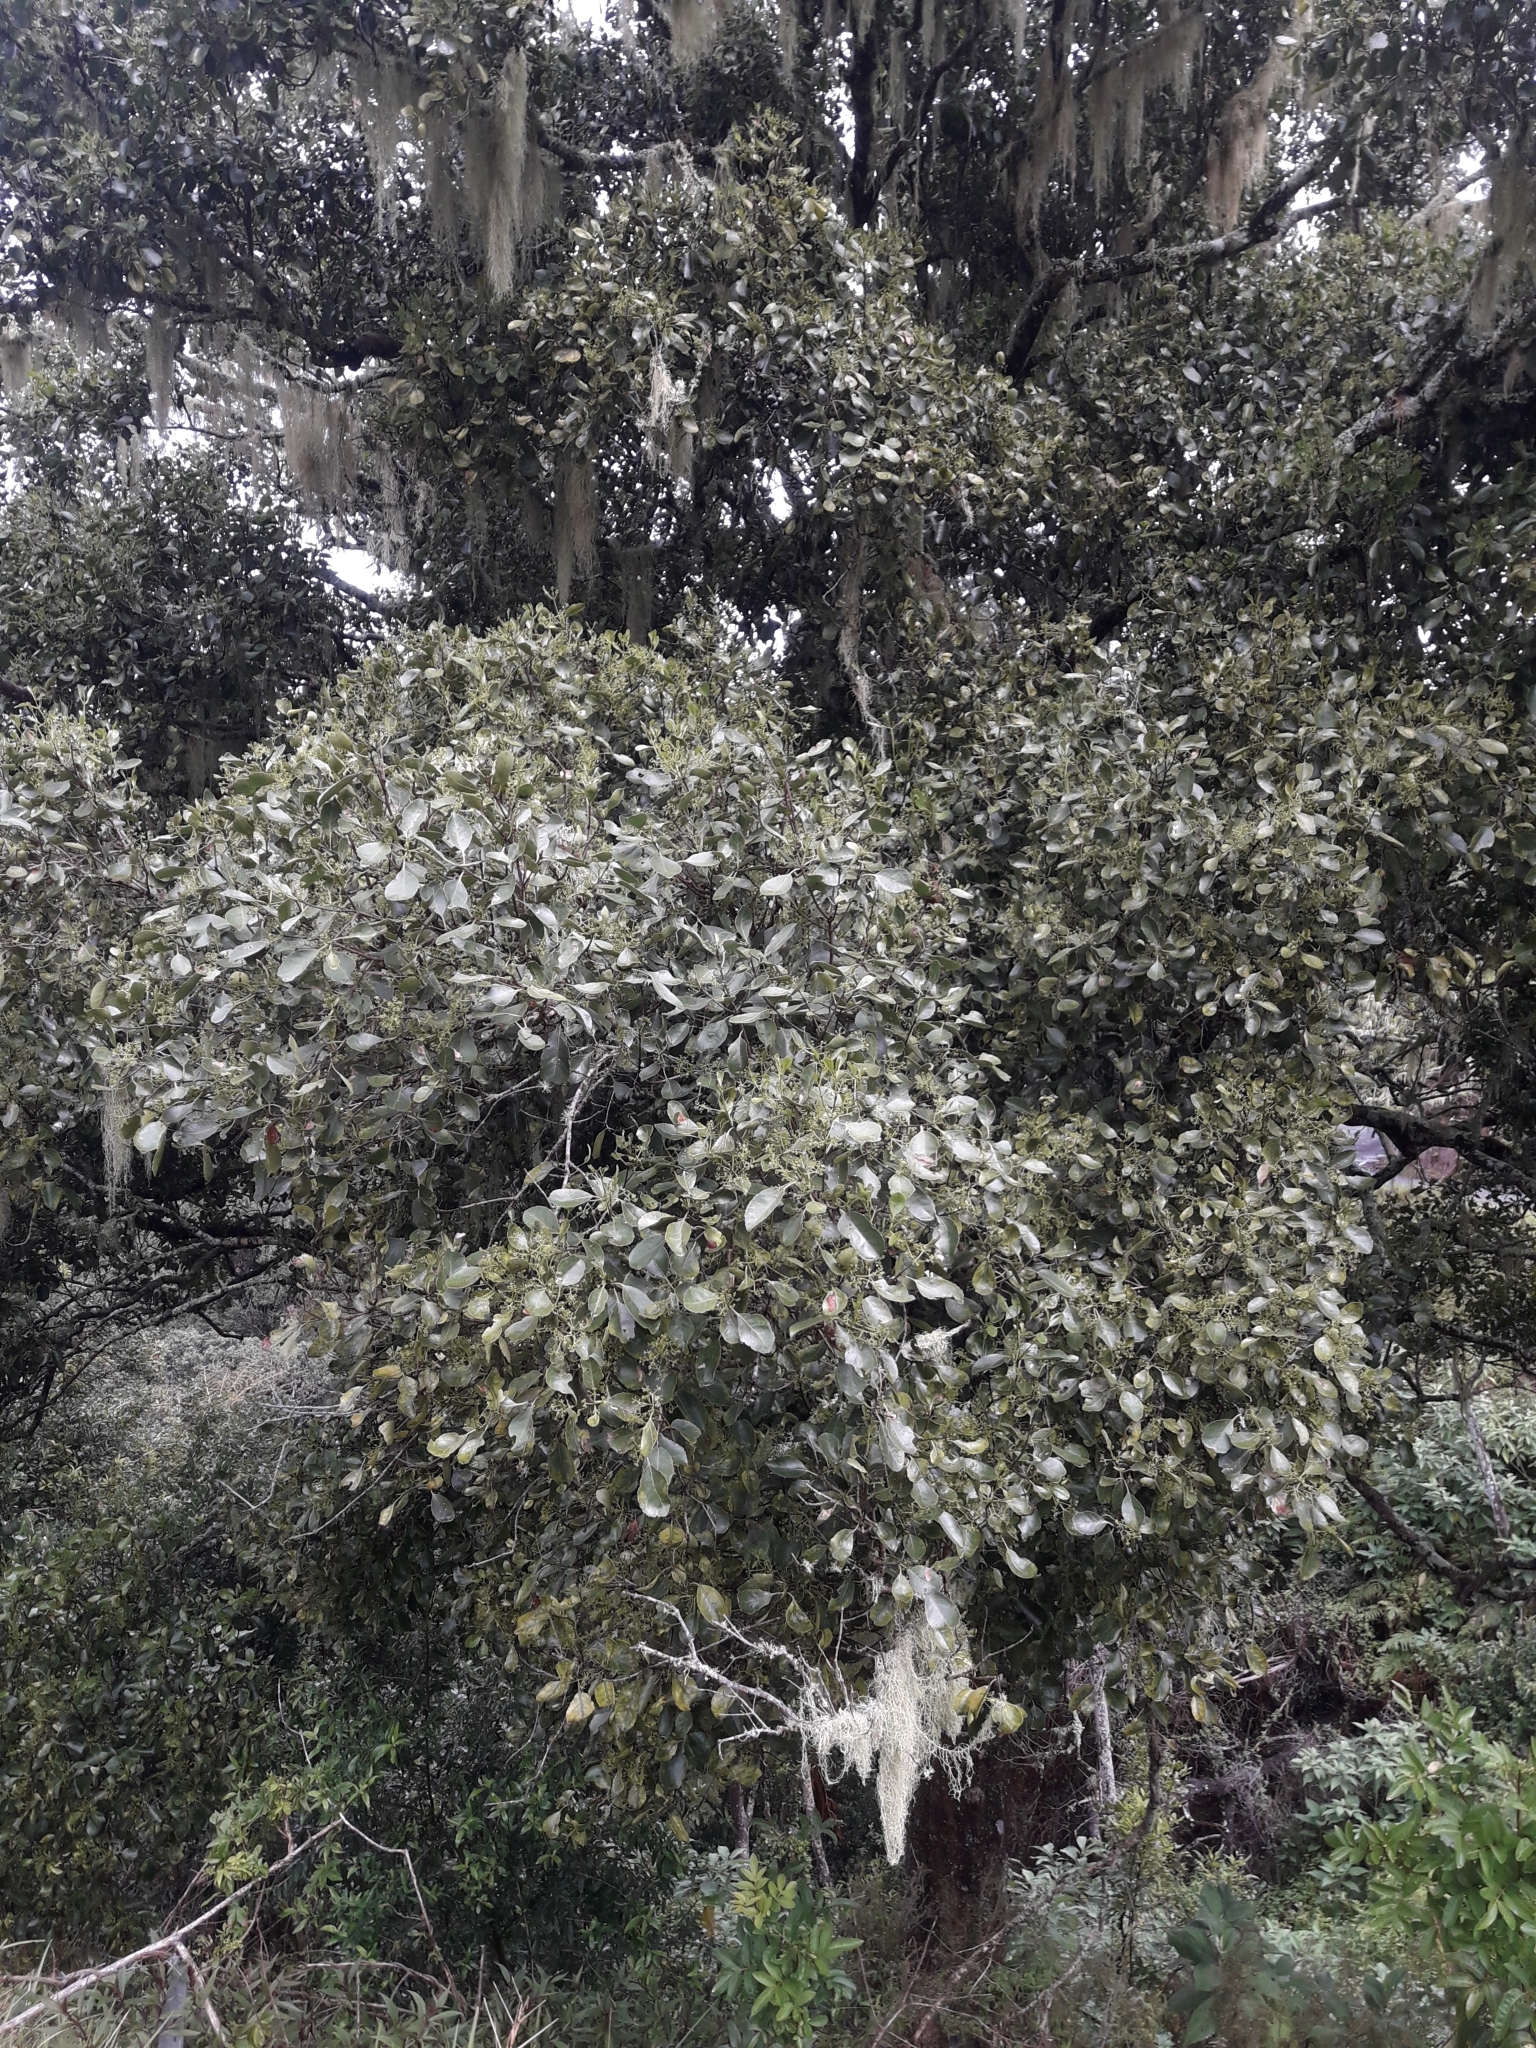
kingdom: Plantae
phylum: Tracheophyta
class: Magnoliopsida
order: Celastrales
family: Celastraceae
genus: Elaeodendron
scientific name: Elaeodendron curtipendulum
